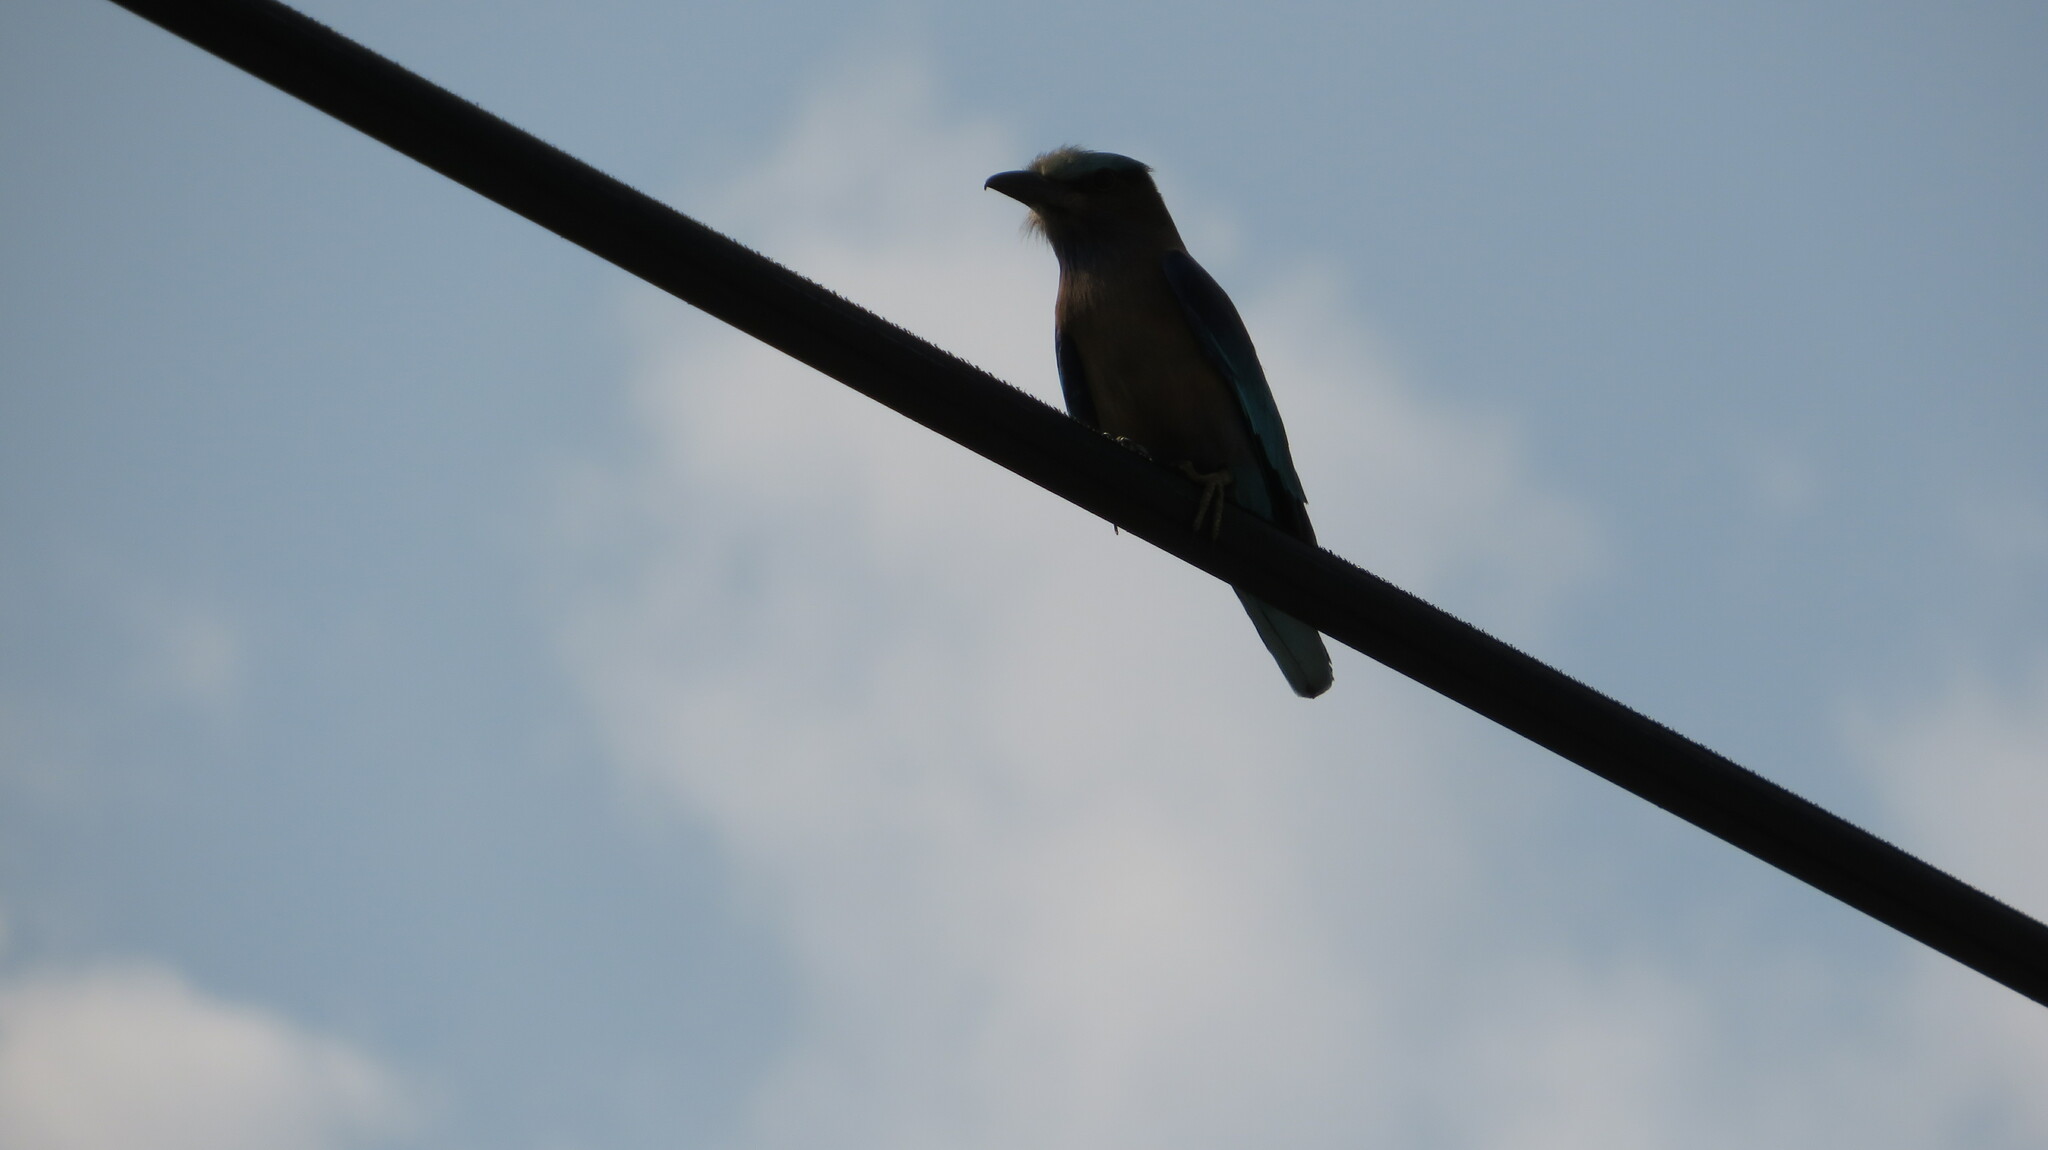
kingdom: Animalia
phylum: Chordata
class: Aves
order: Coraciiformes
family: Coraciidae
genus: Coracias
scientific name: Coracias affinis
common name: Indochinese roller
